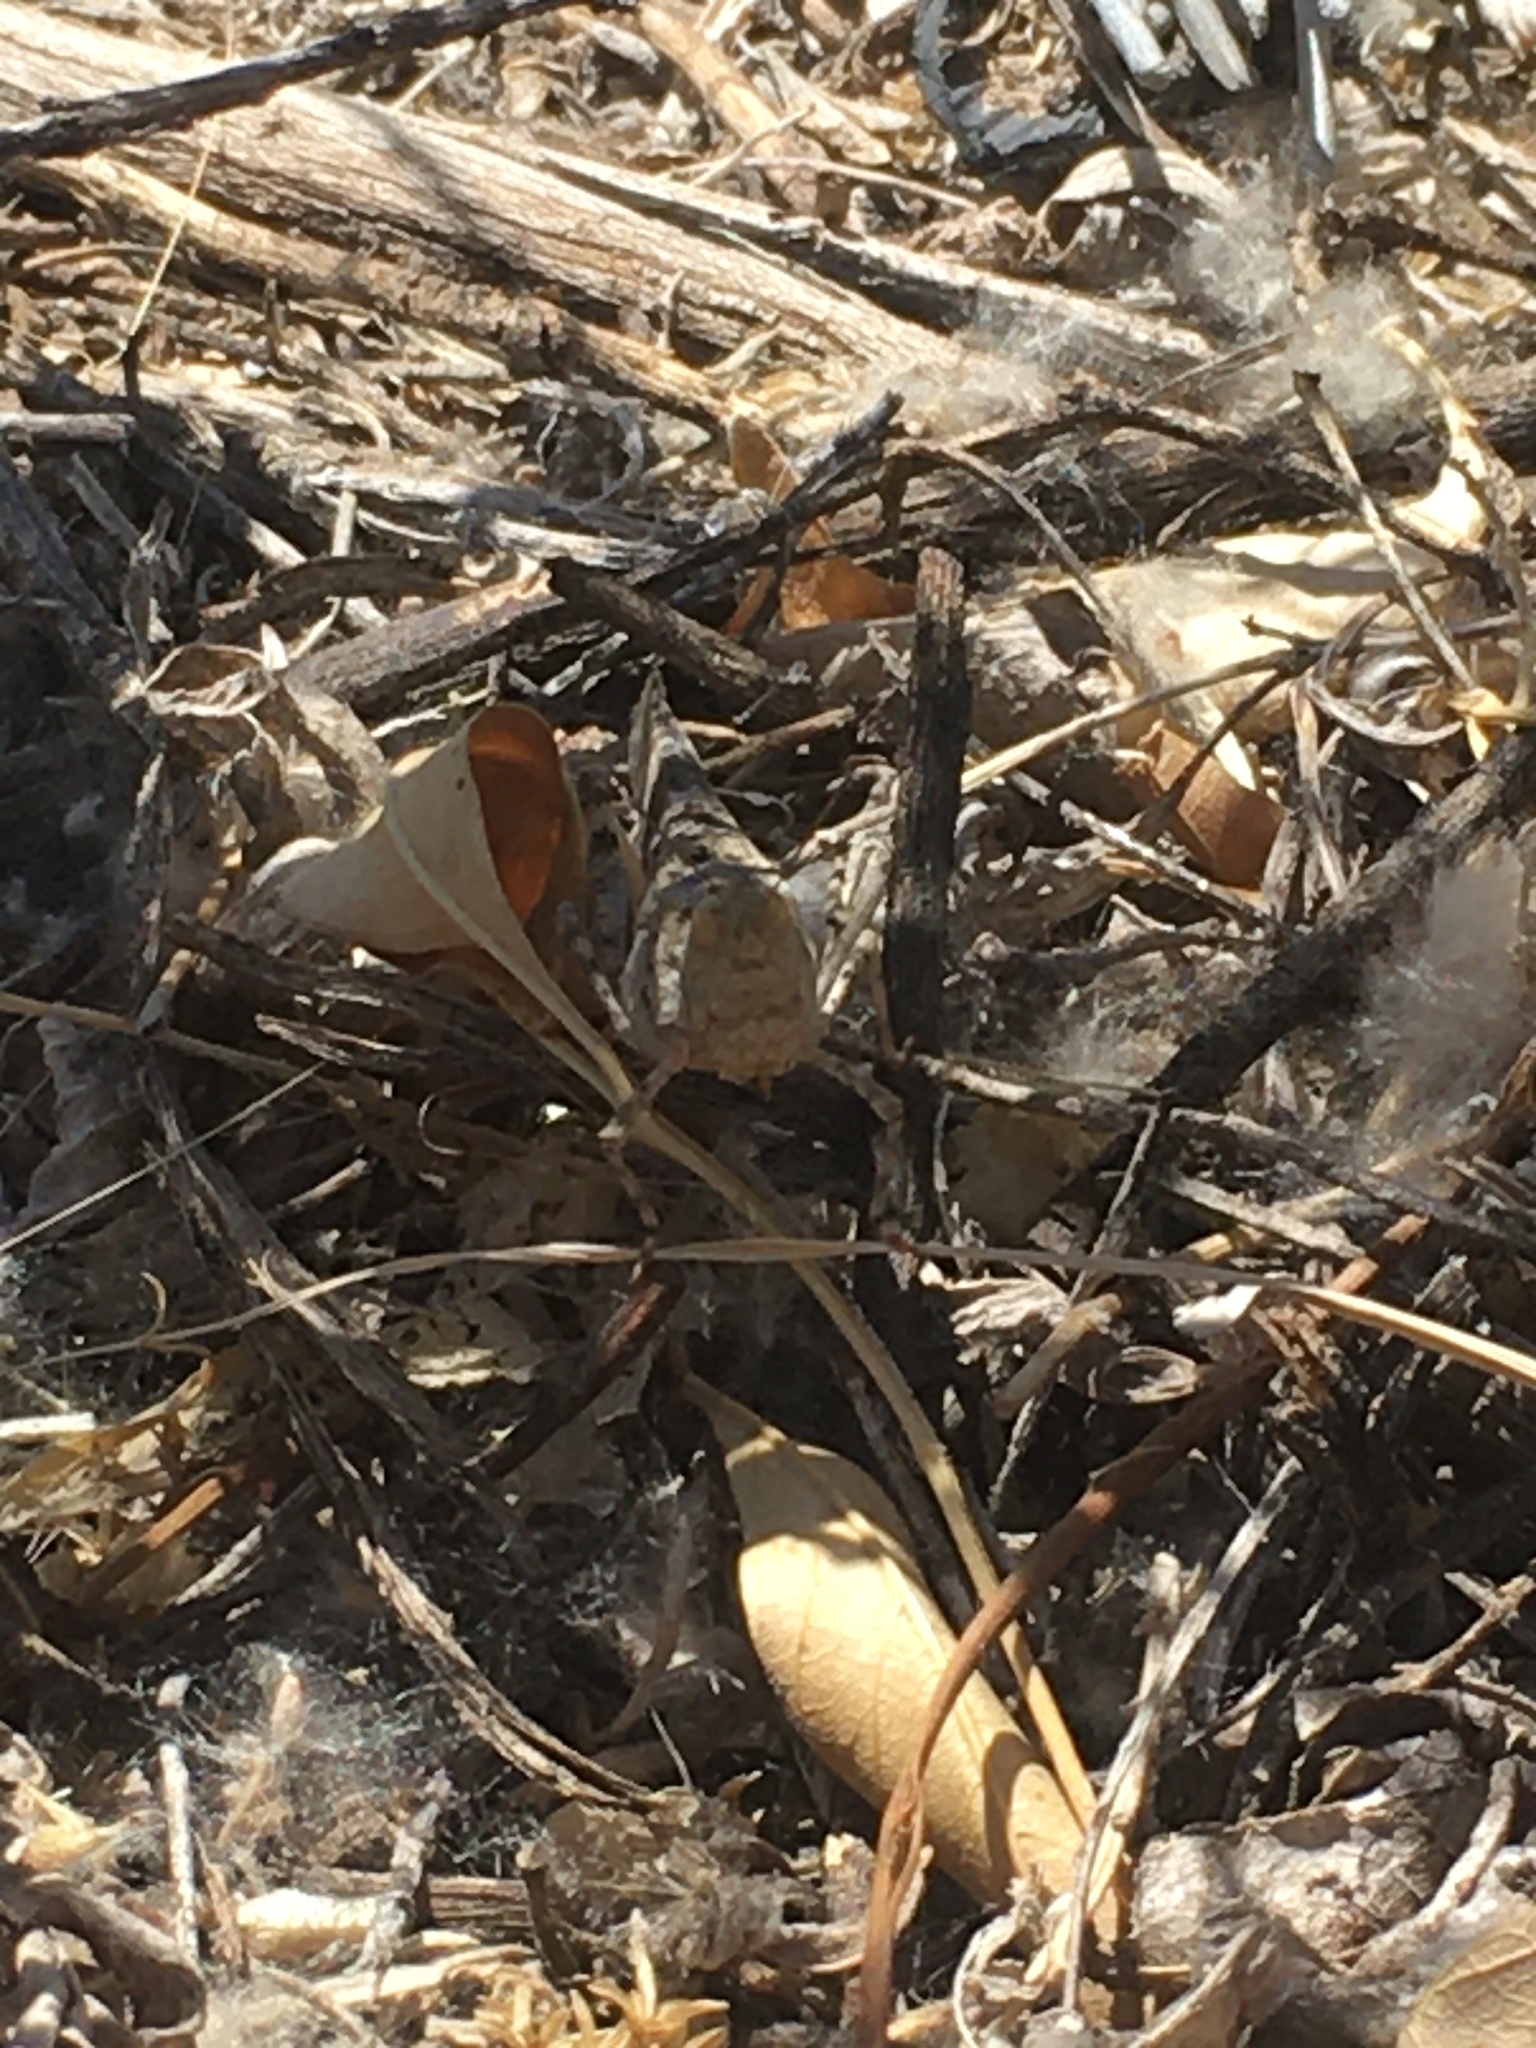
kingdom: Animalia
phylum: Arthropoda
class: Insecta
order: Orthoptera
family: Acrididae
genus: Trimerotropis
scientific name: Trimerotropis pallidipennis
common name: Pallid-winged grasshopper
